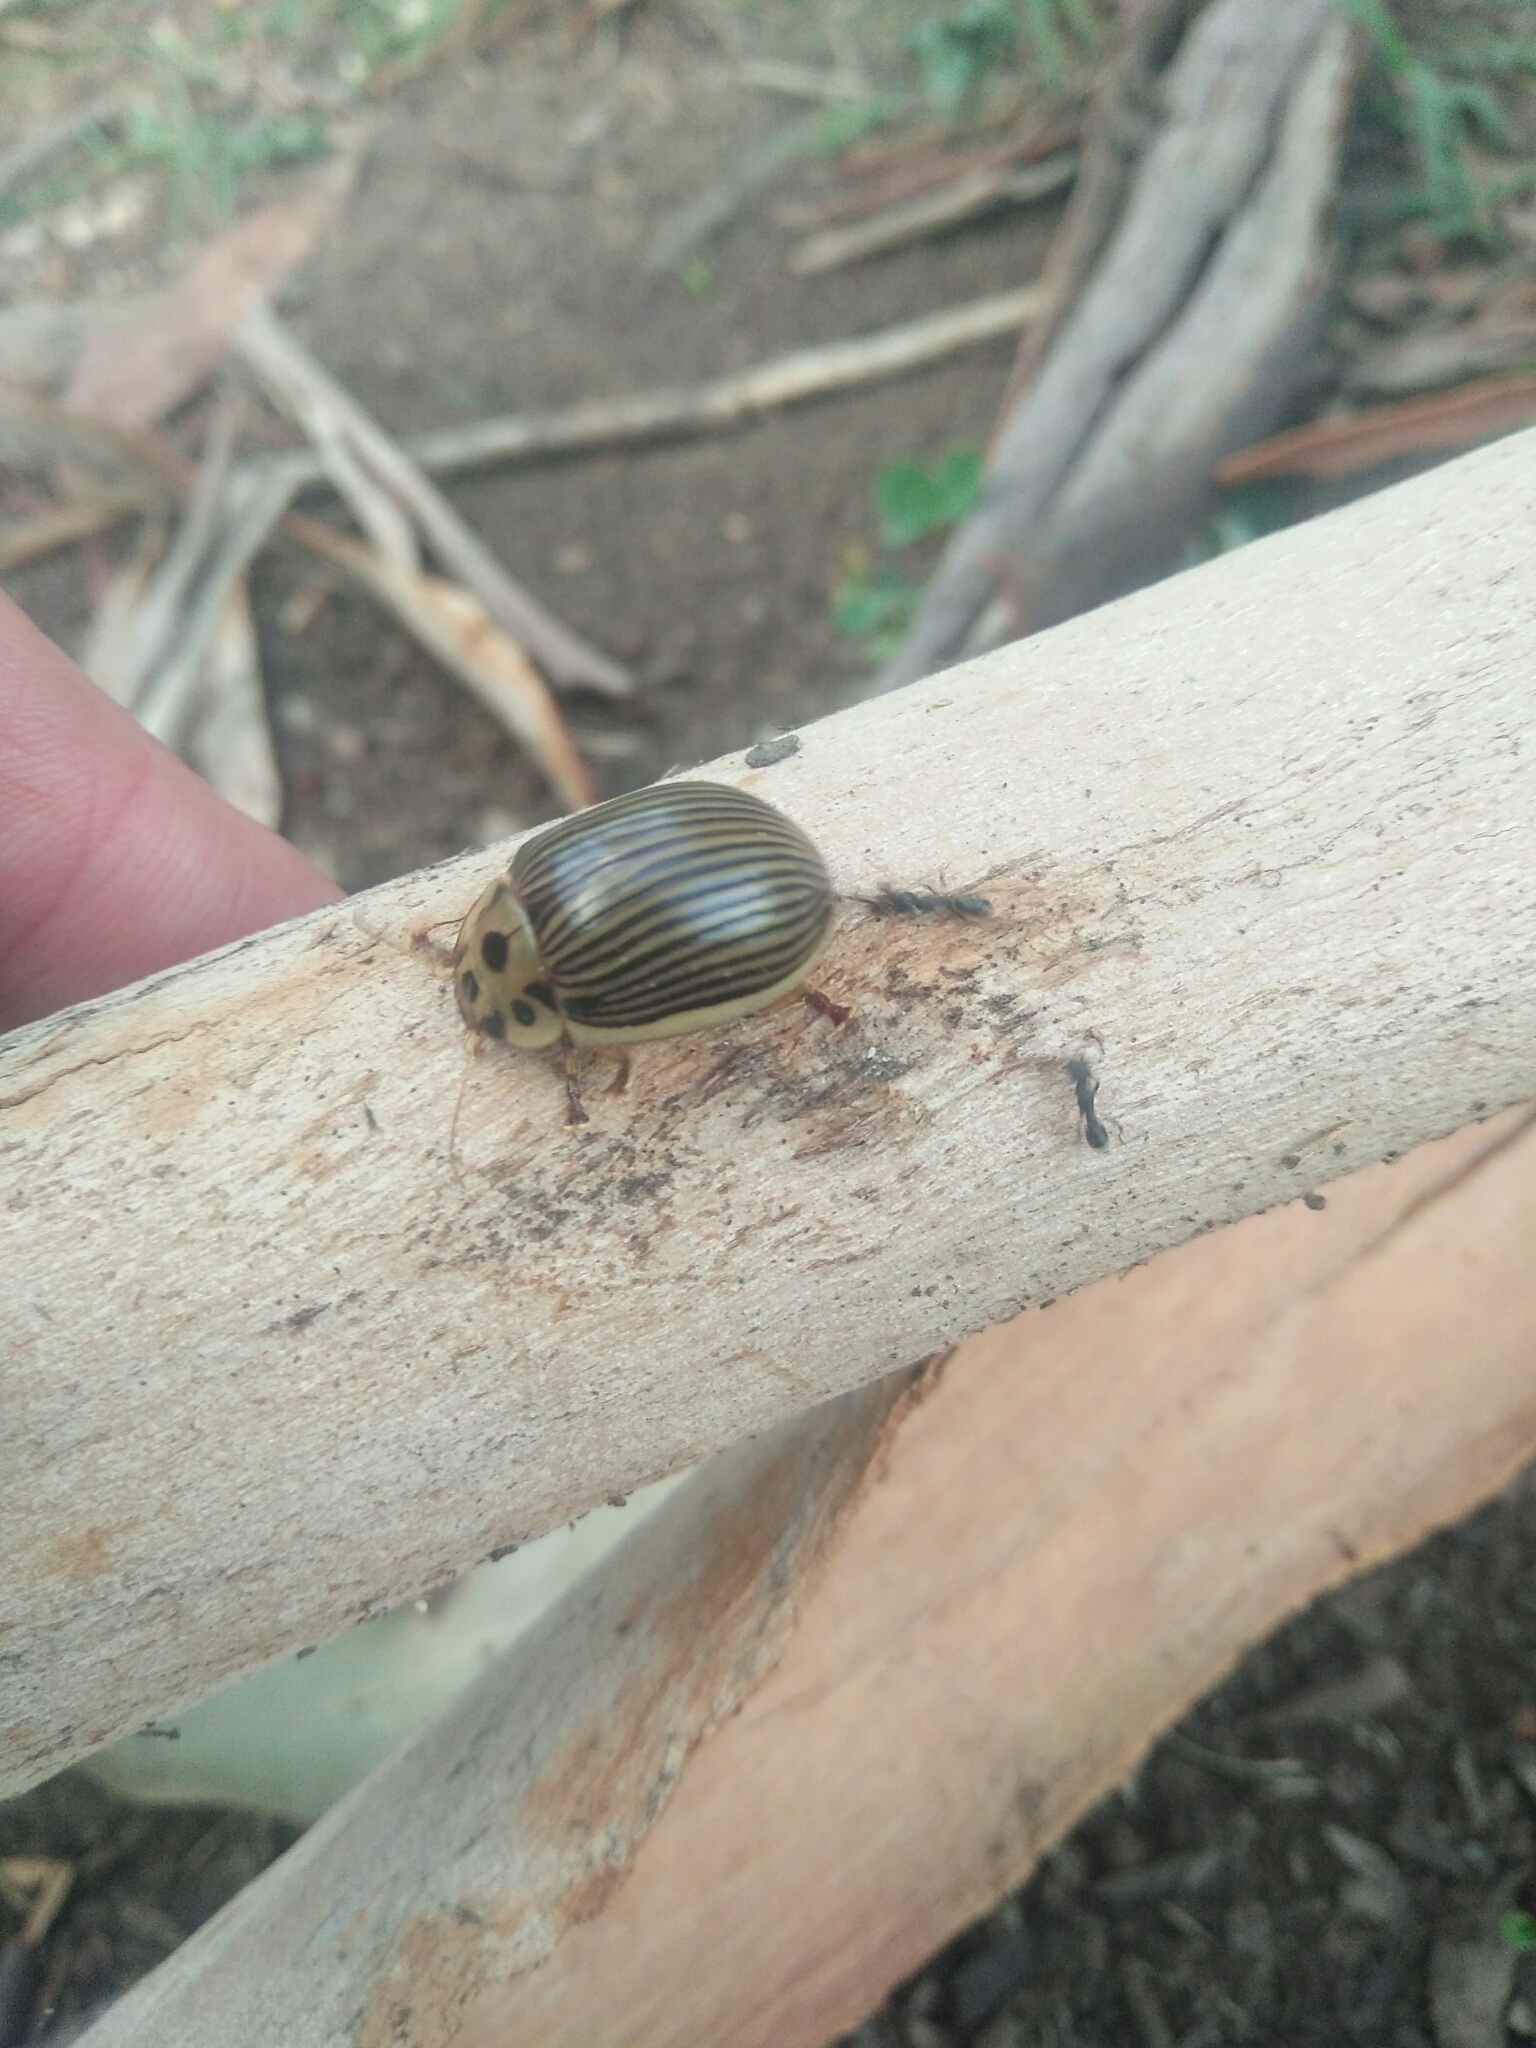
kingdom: Animalia
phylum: Arthropoda
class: Insecta
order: Coleoptera
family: Chrysomelidae
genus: Paropsisterna
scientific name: Paropsisterna
